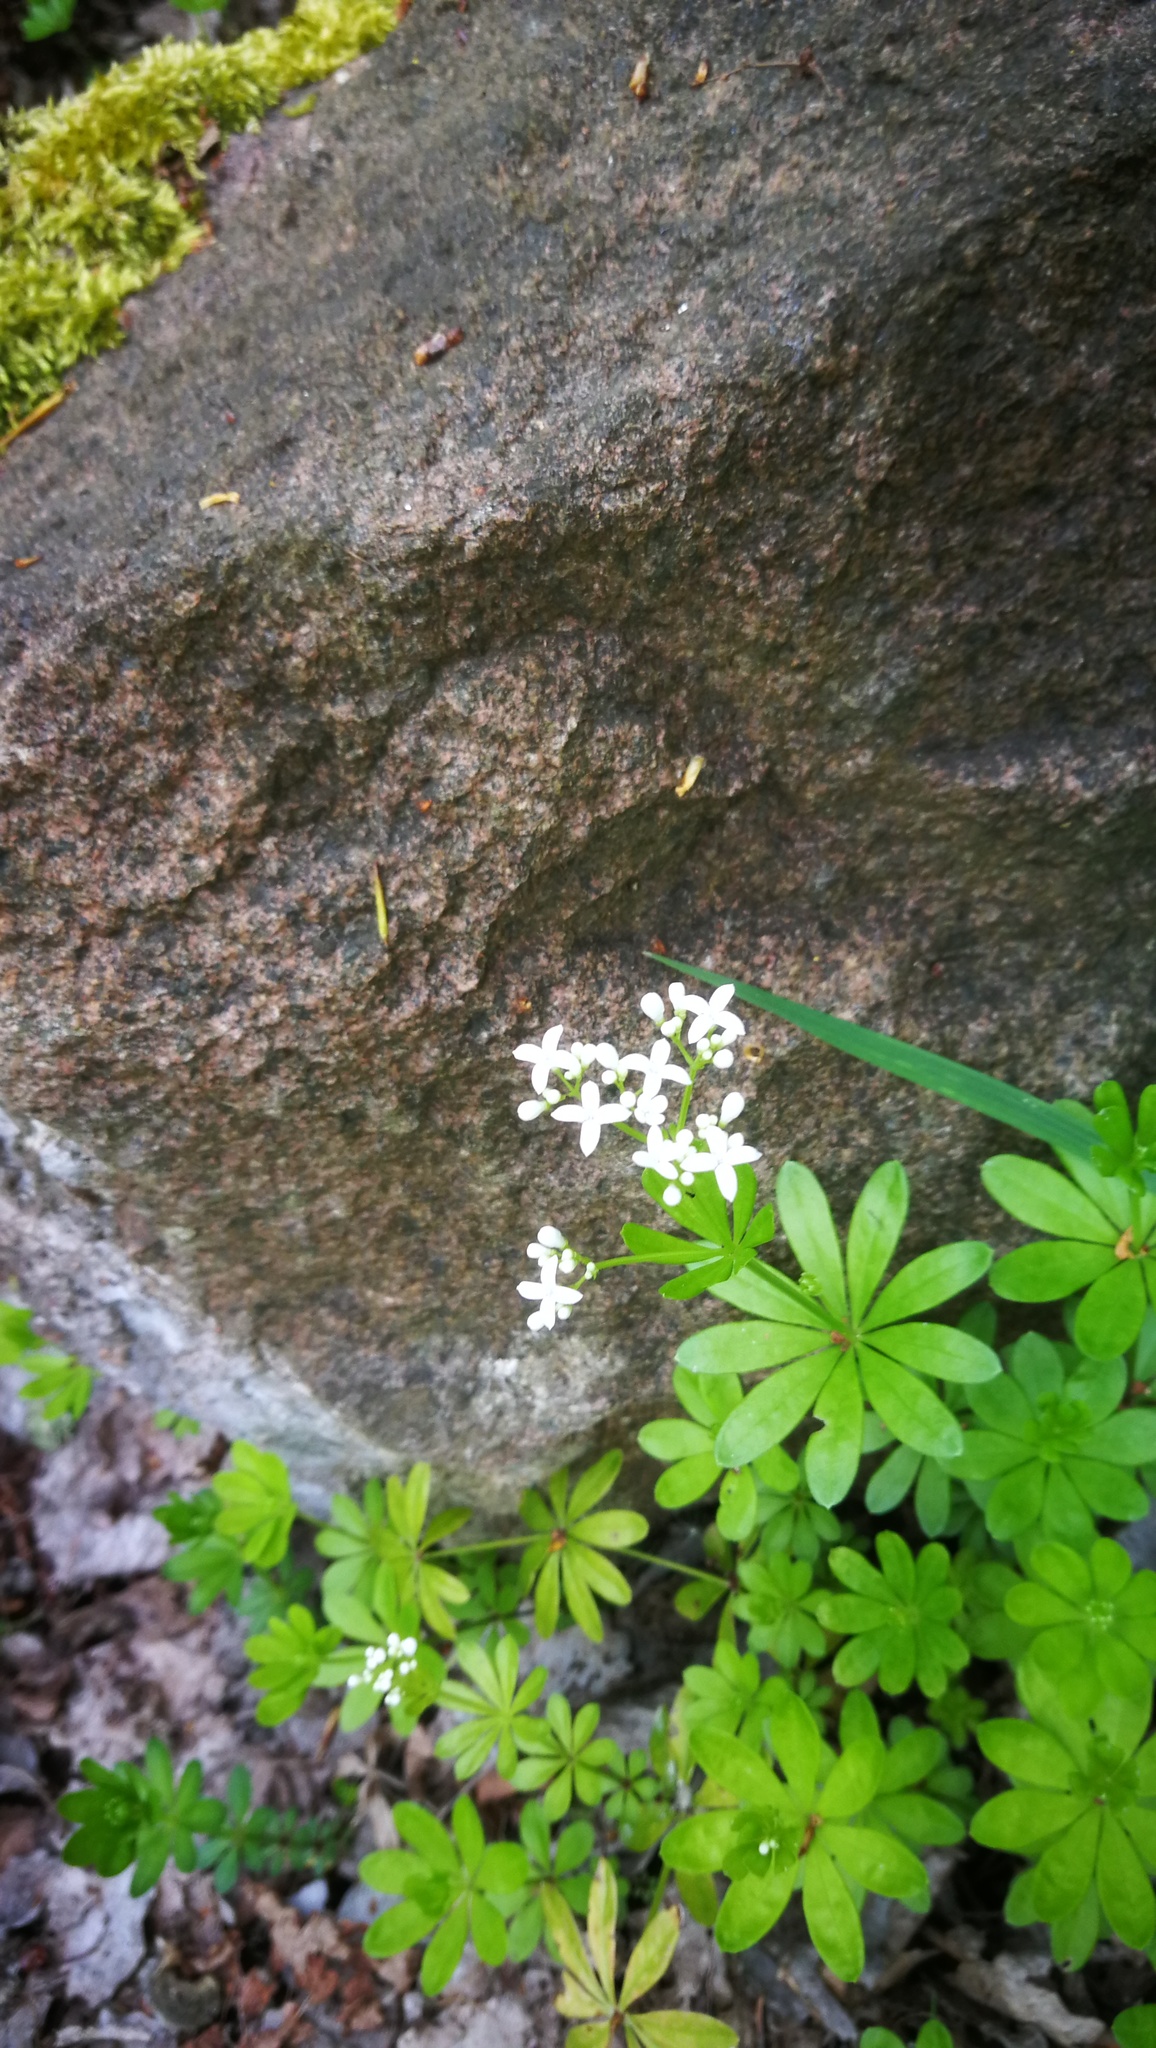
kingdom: Plantae
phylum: Tracheophyta
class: Magnoliopsida
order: Gentianales
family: Rubiaceae
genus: Galium
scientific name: Galium odoratum
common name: Sweet woodruff
